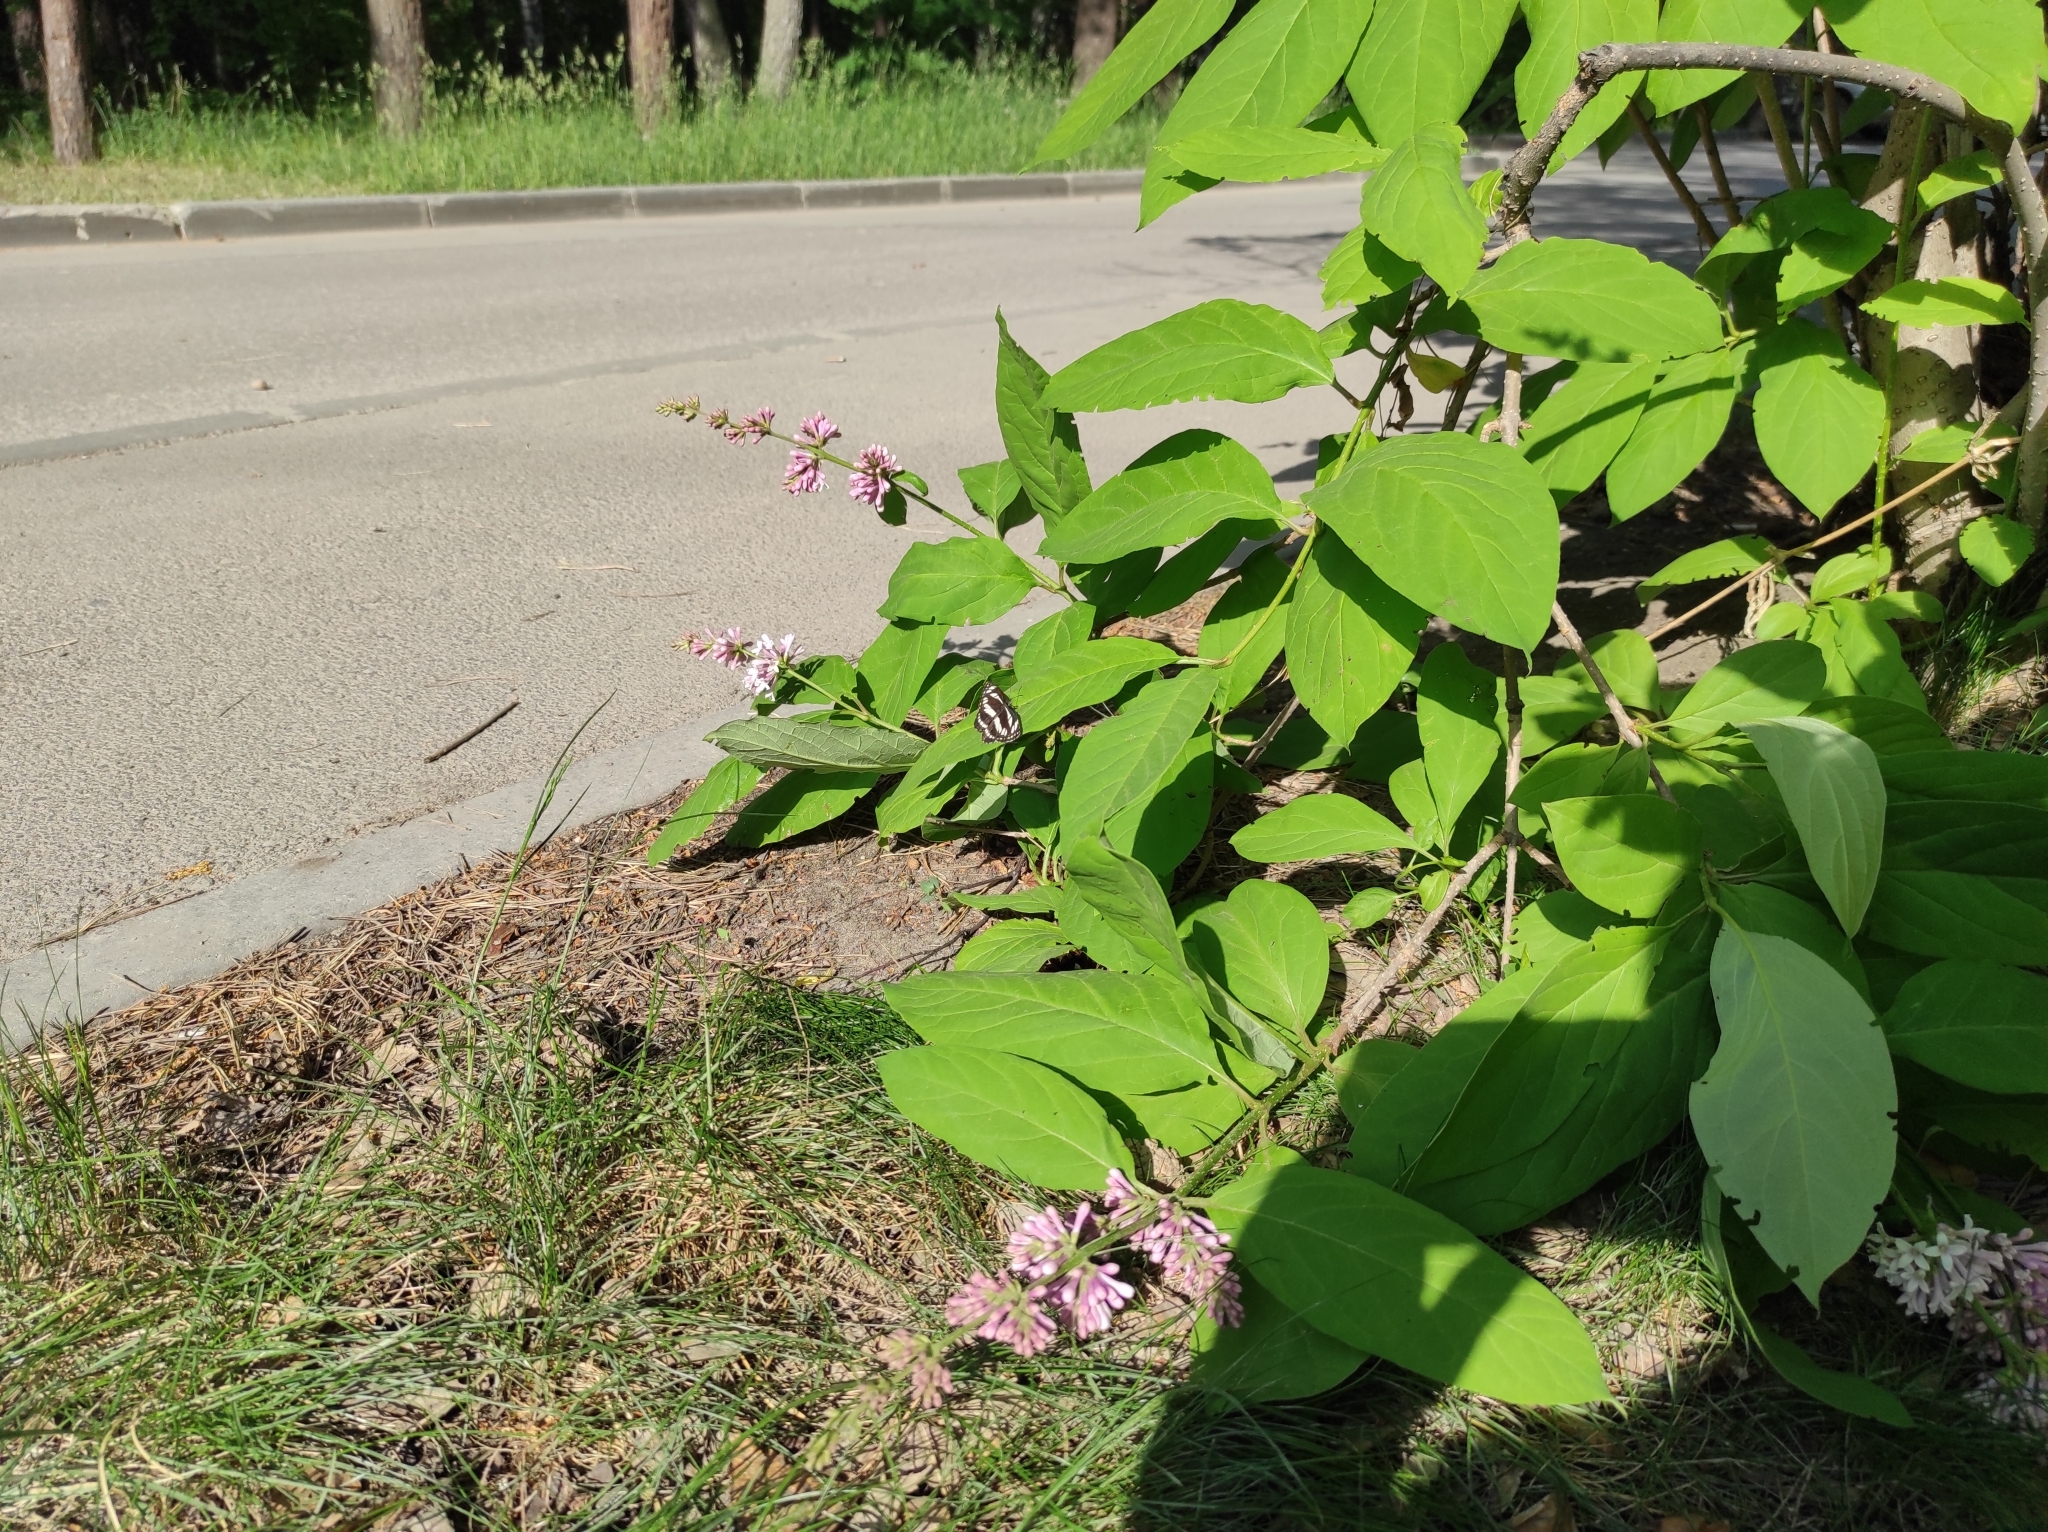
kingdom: Animalia
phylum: Arthropoda
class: Insecta
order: Lepidoptera
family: Nymphalidae
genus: Neptis
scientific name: Neptis sappho
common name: Common glider
